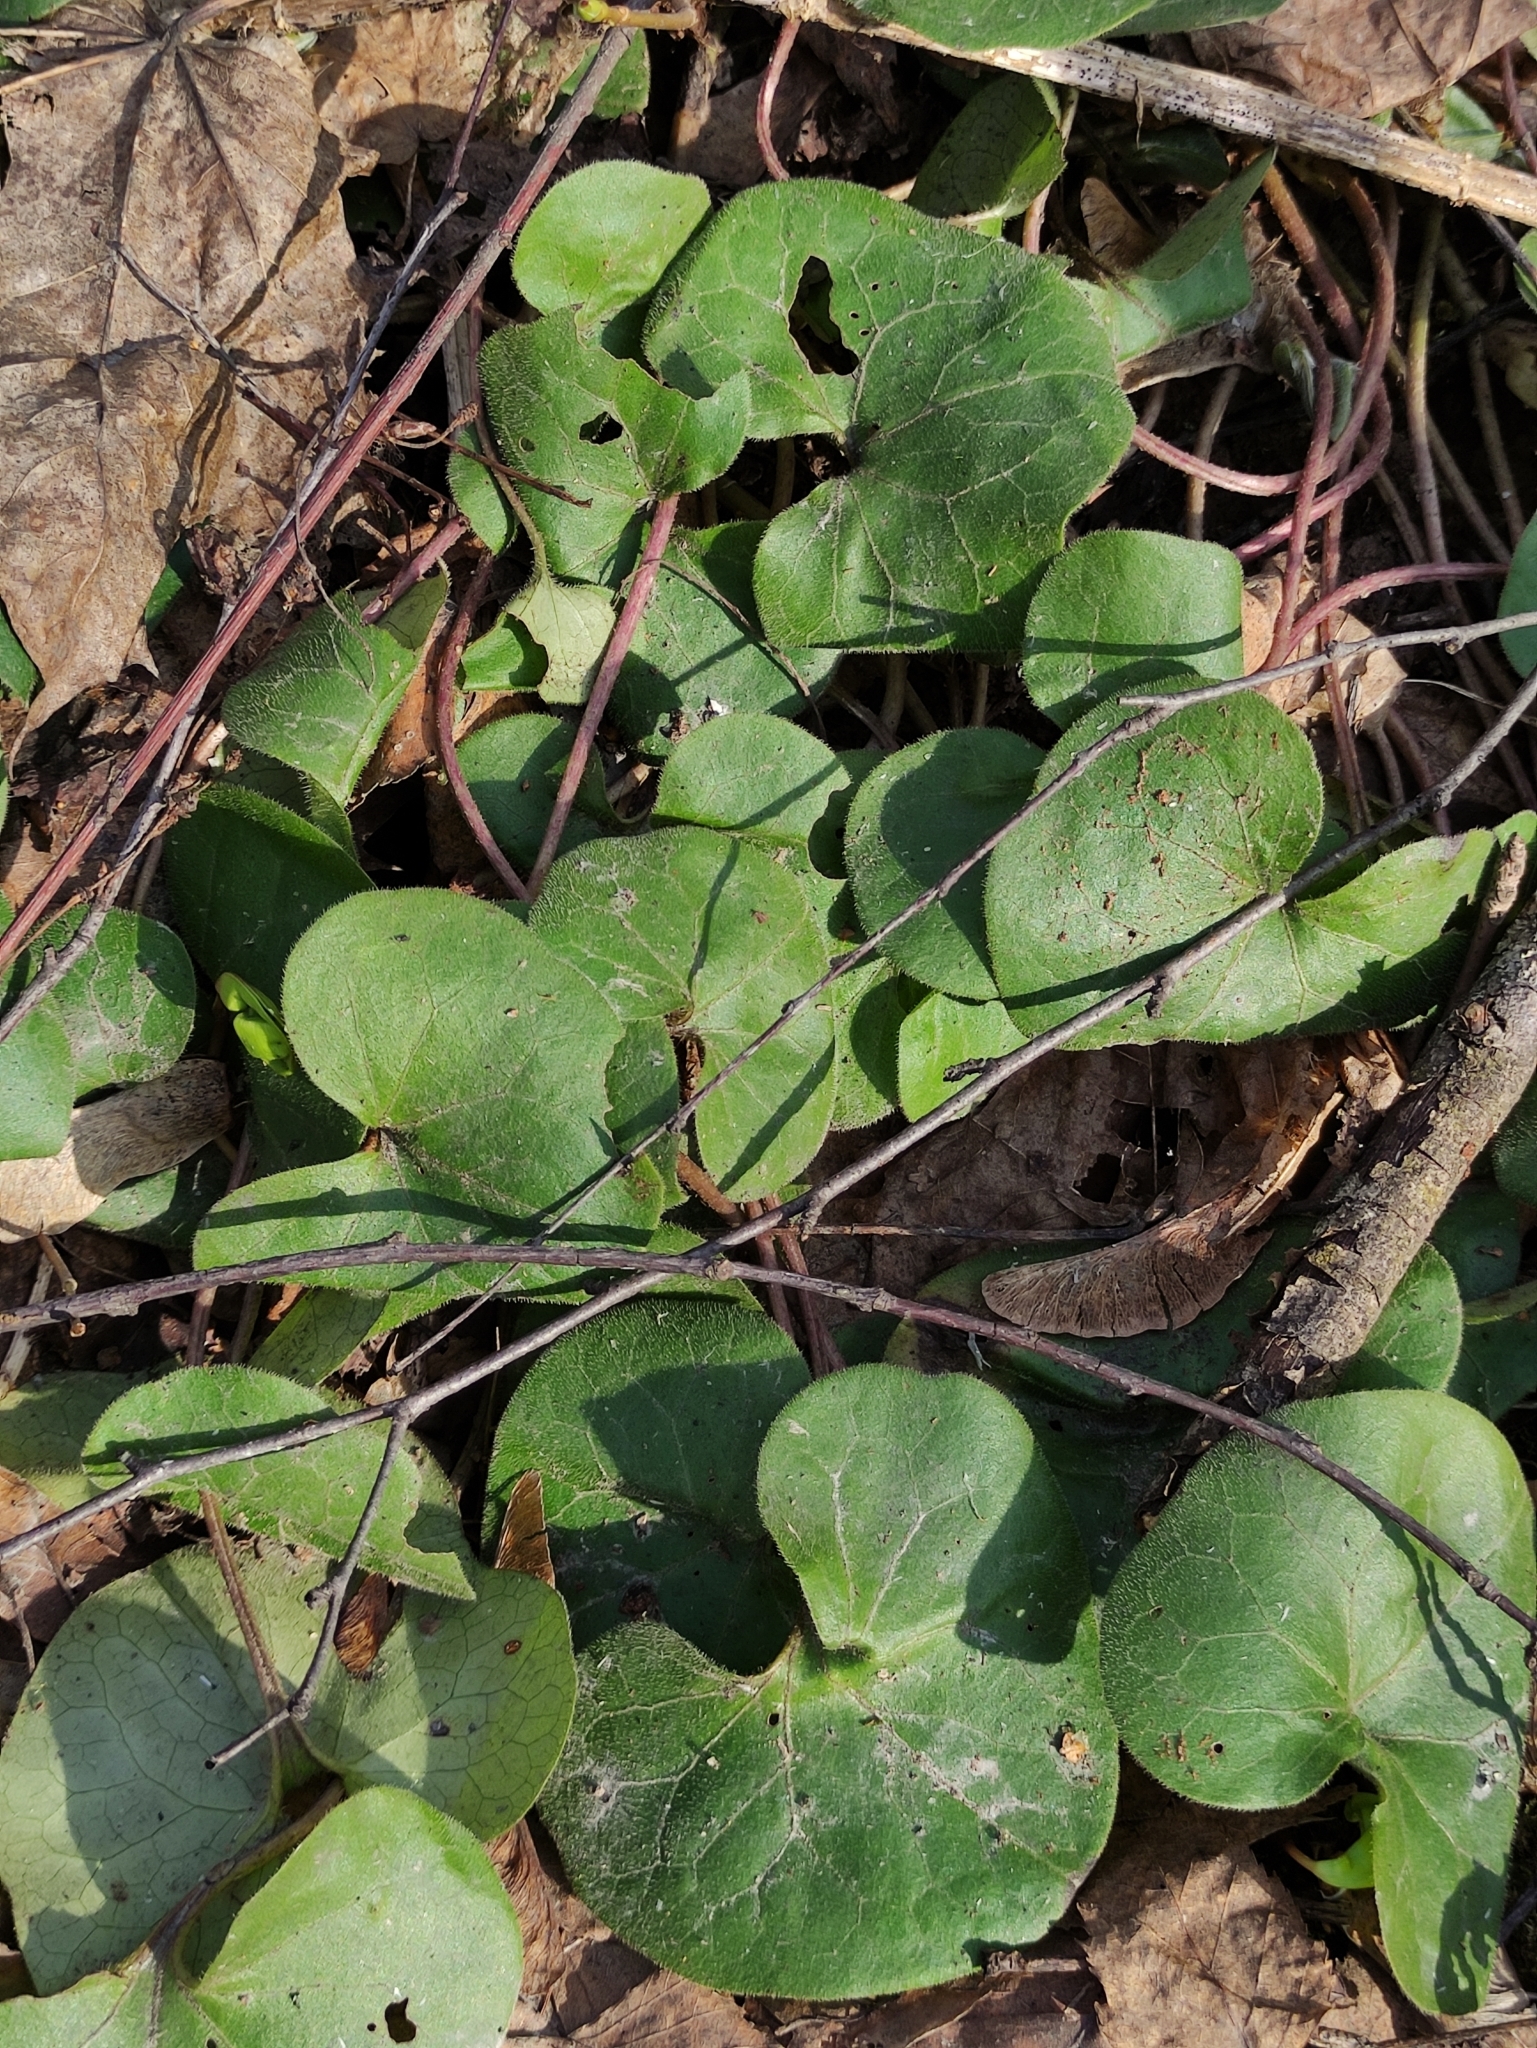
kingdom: Plantae
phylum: Tracheophyta
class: Magnoliopsida
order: Piperales
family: Aristolochiaceae
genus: Asarum
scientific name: Asarum europaeum
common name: Asarabacca
